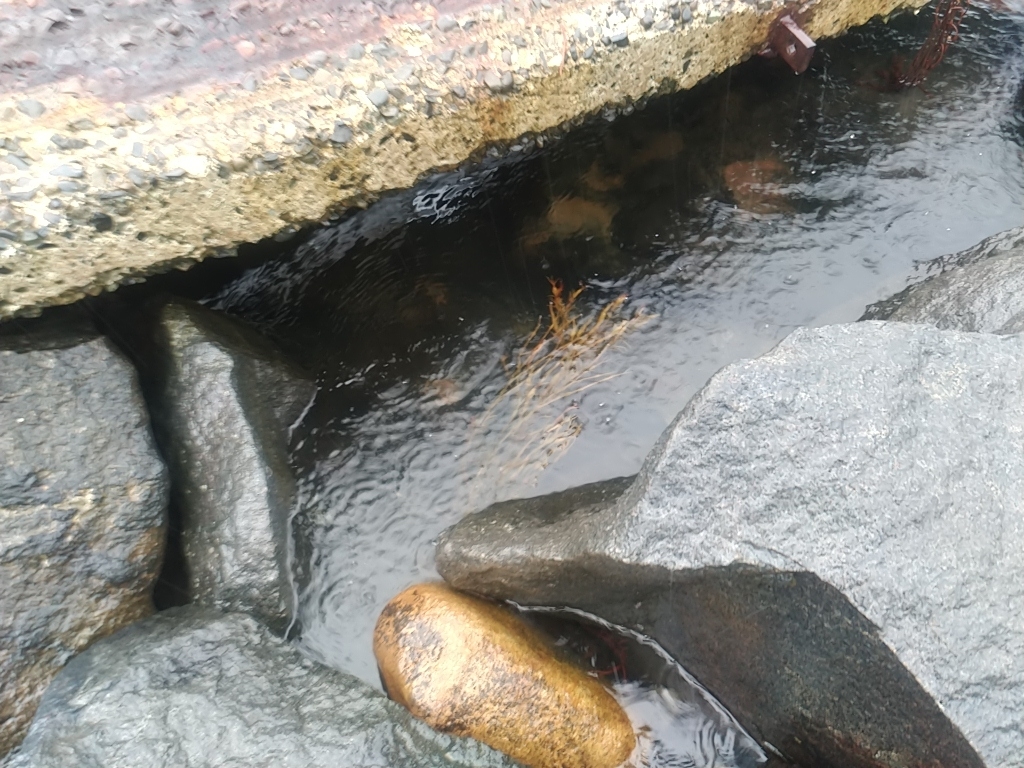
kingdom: Chromista
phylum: Ochrophyta
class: Phaeophyceae
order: Fucales
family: Fucaceae
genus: Ascophyllum
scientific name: Ascophyllum nodosum
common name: Knotted wrack
